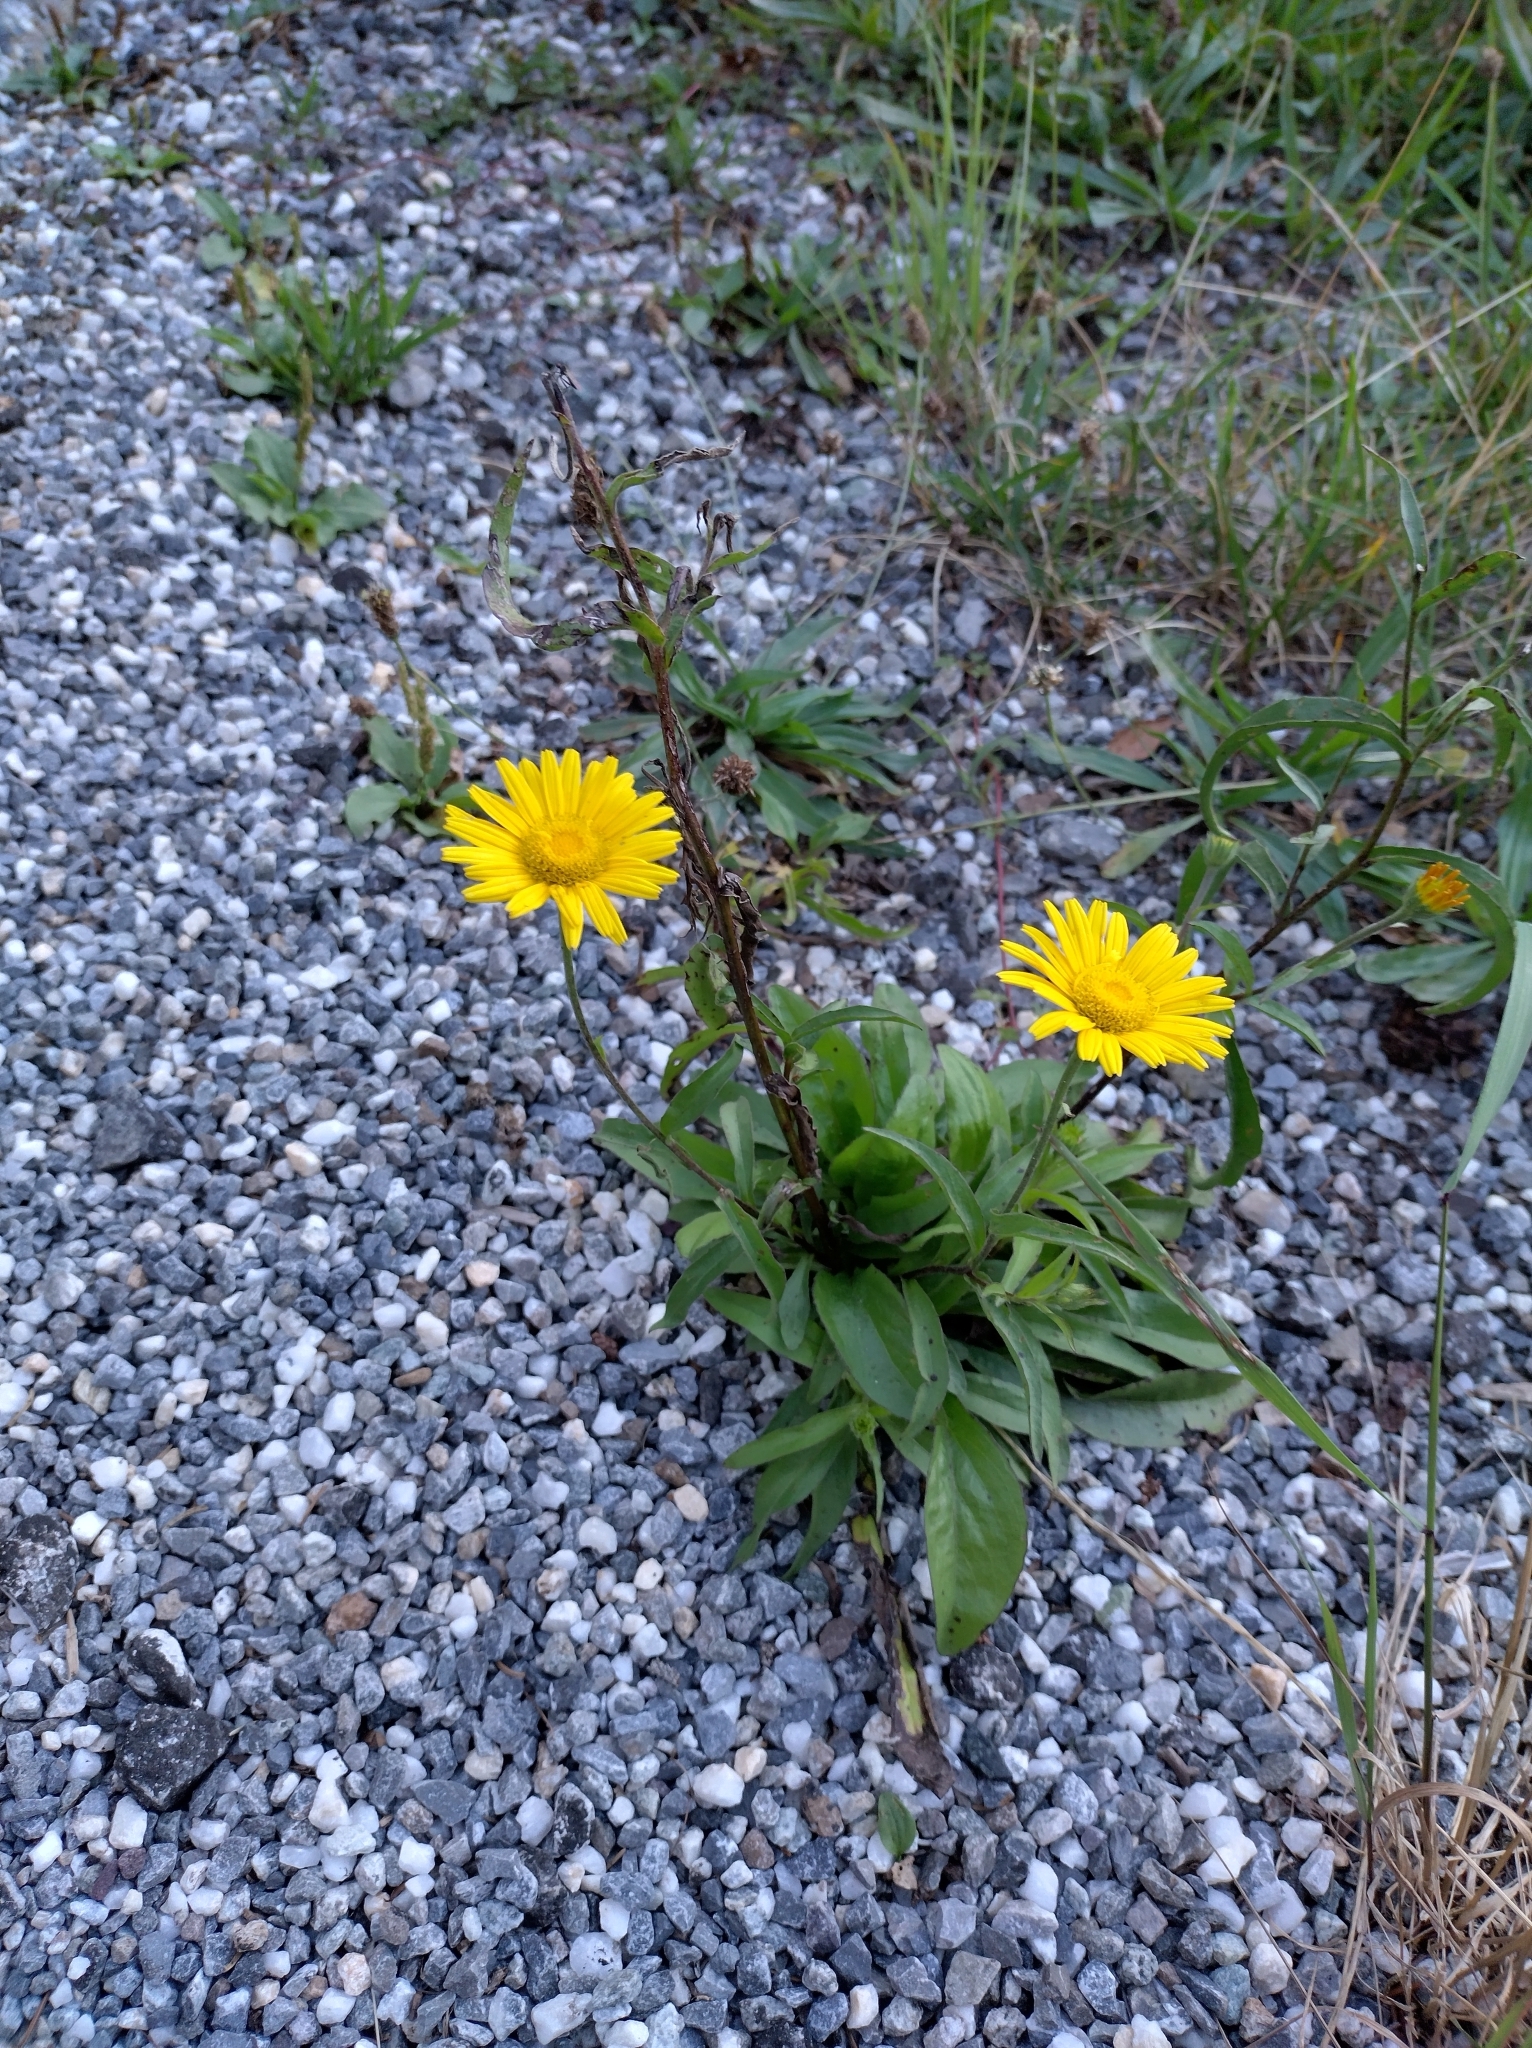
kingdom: Plantae
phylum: Tracheophyta
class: Magnoliopsida
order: Asterales
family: Asteraceae
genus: Buphthalmum
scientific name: Buphthalmum salicifolium
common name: Willow-leaved yellow-oxeye
